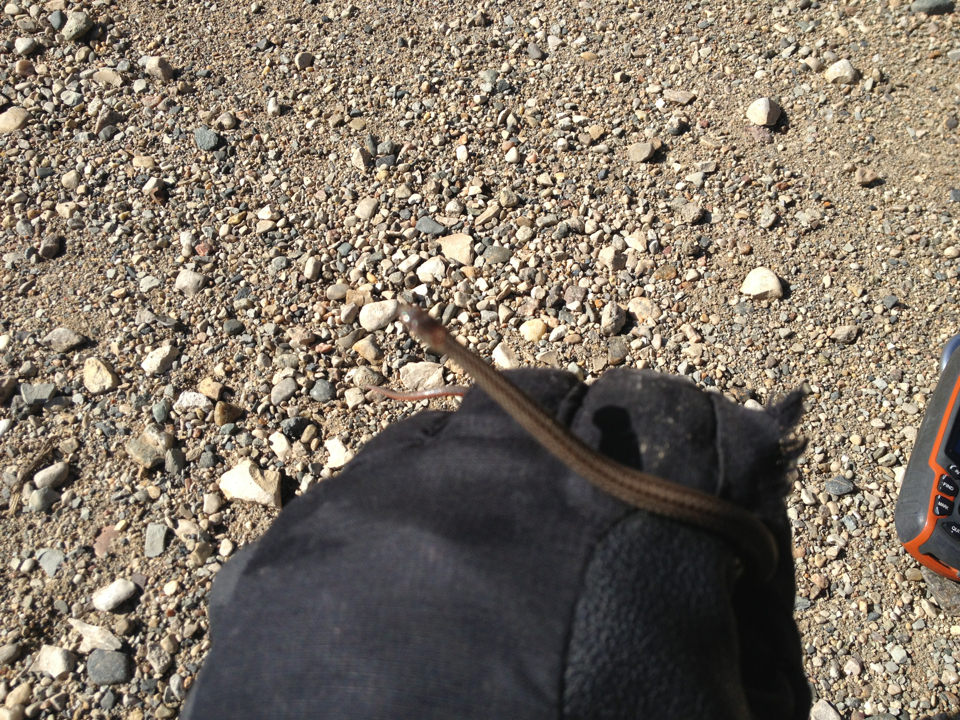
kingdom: Animalia
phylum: Chordata
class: Squamata
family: Colubridae
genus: Storeria
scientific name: Storeria occipitomaculata
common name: Redbelly snake
